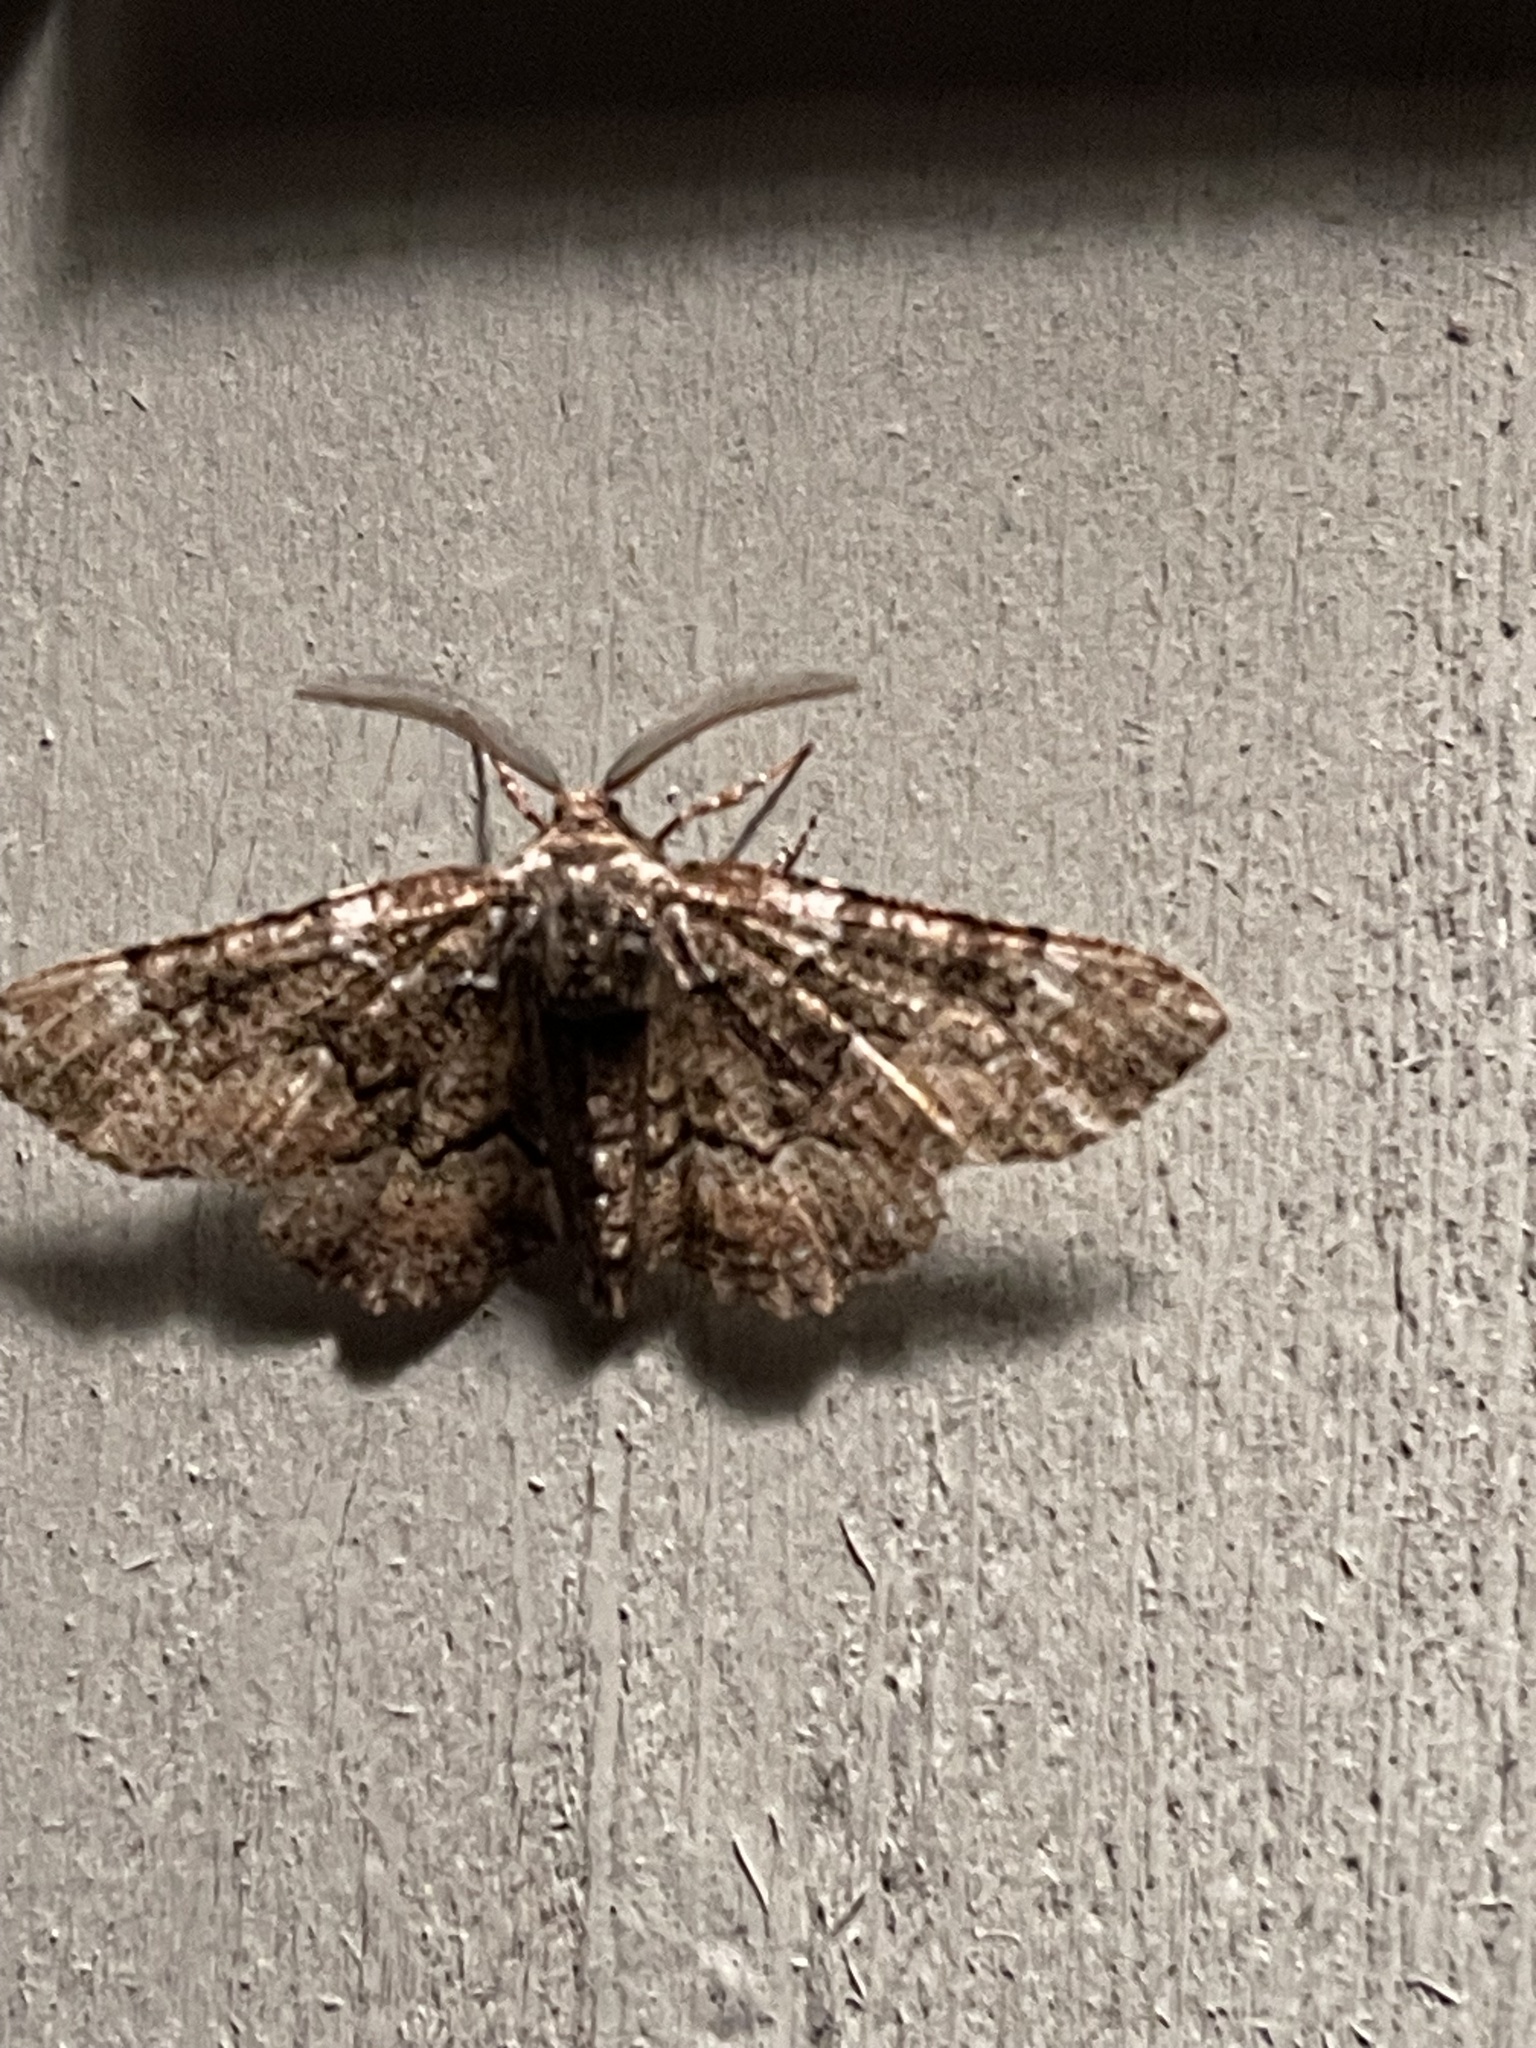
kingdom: Animalia
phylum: Arthropoda
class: Insecta
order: Lepidoptera
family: Geometridae
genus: Phaeoura
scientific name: Phaeoura quernaria
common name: Oak beauty
